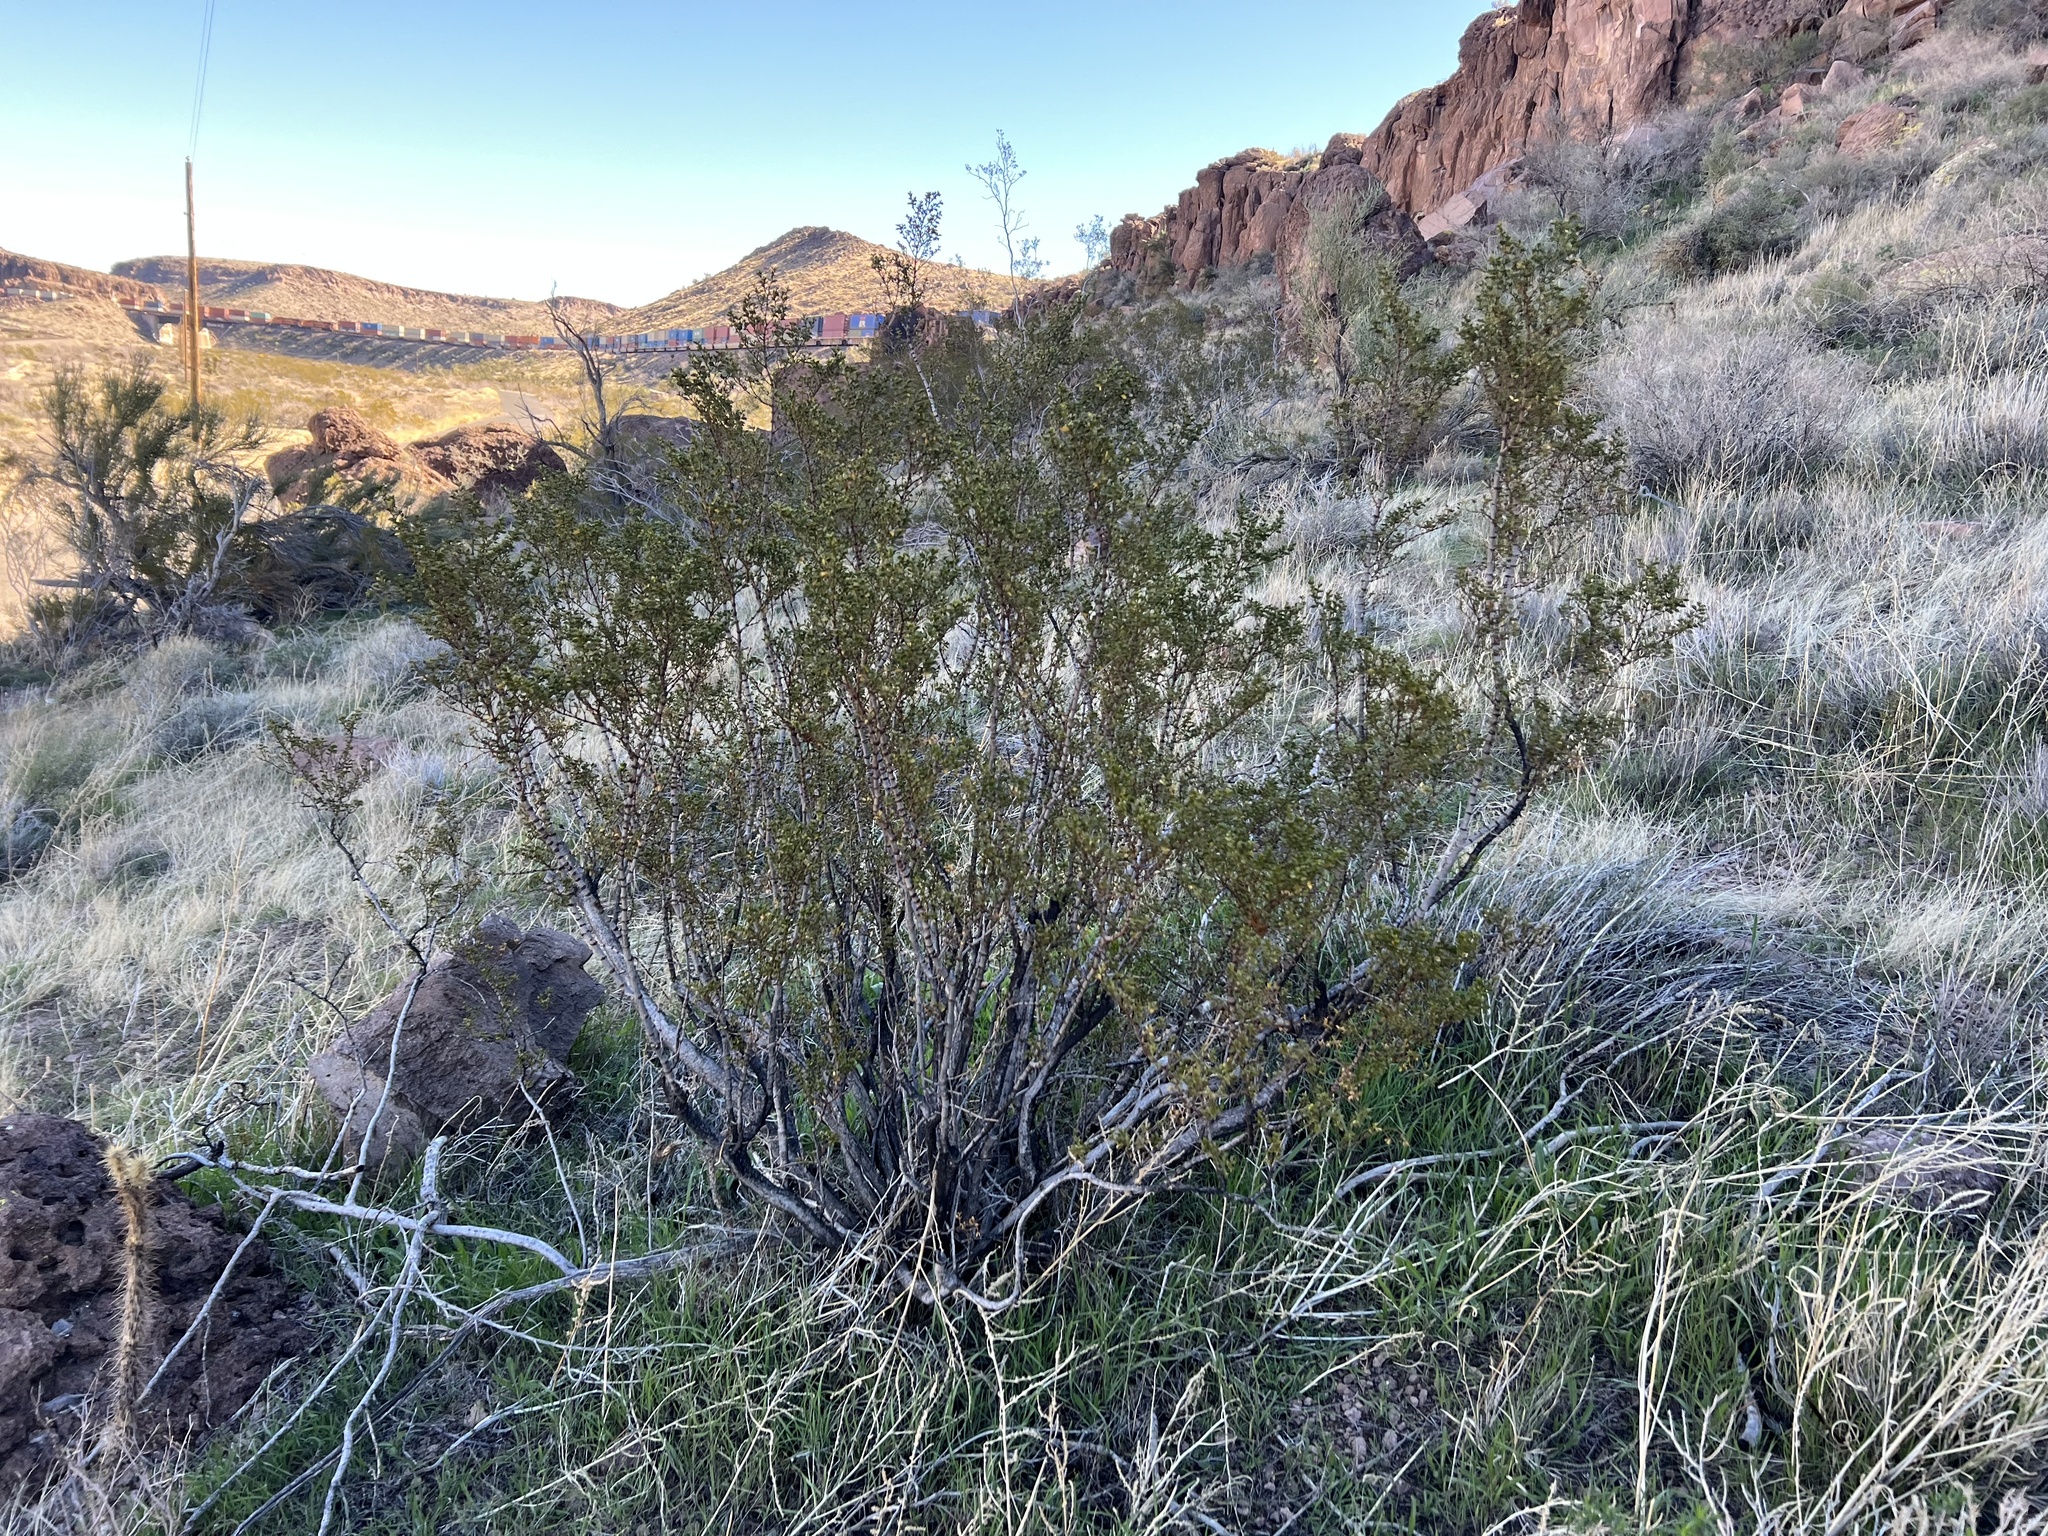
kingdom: Plantae
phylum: Tracheophyta
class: Magnoliopsida
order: Zygophyllales
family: Zygophyllaceae
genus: Larrea
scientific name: Larrea tridentata
